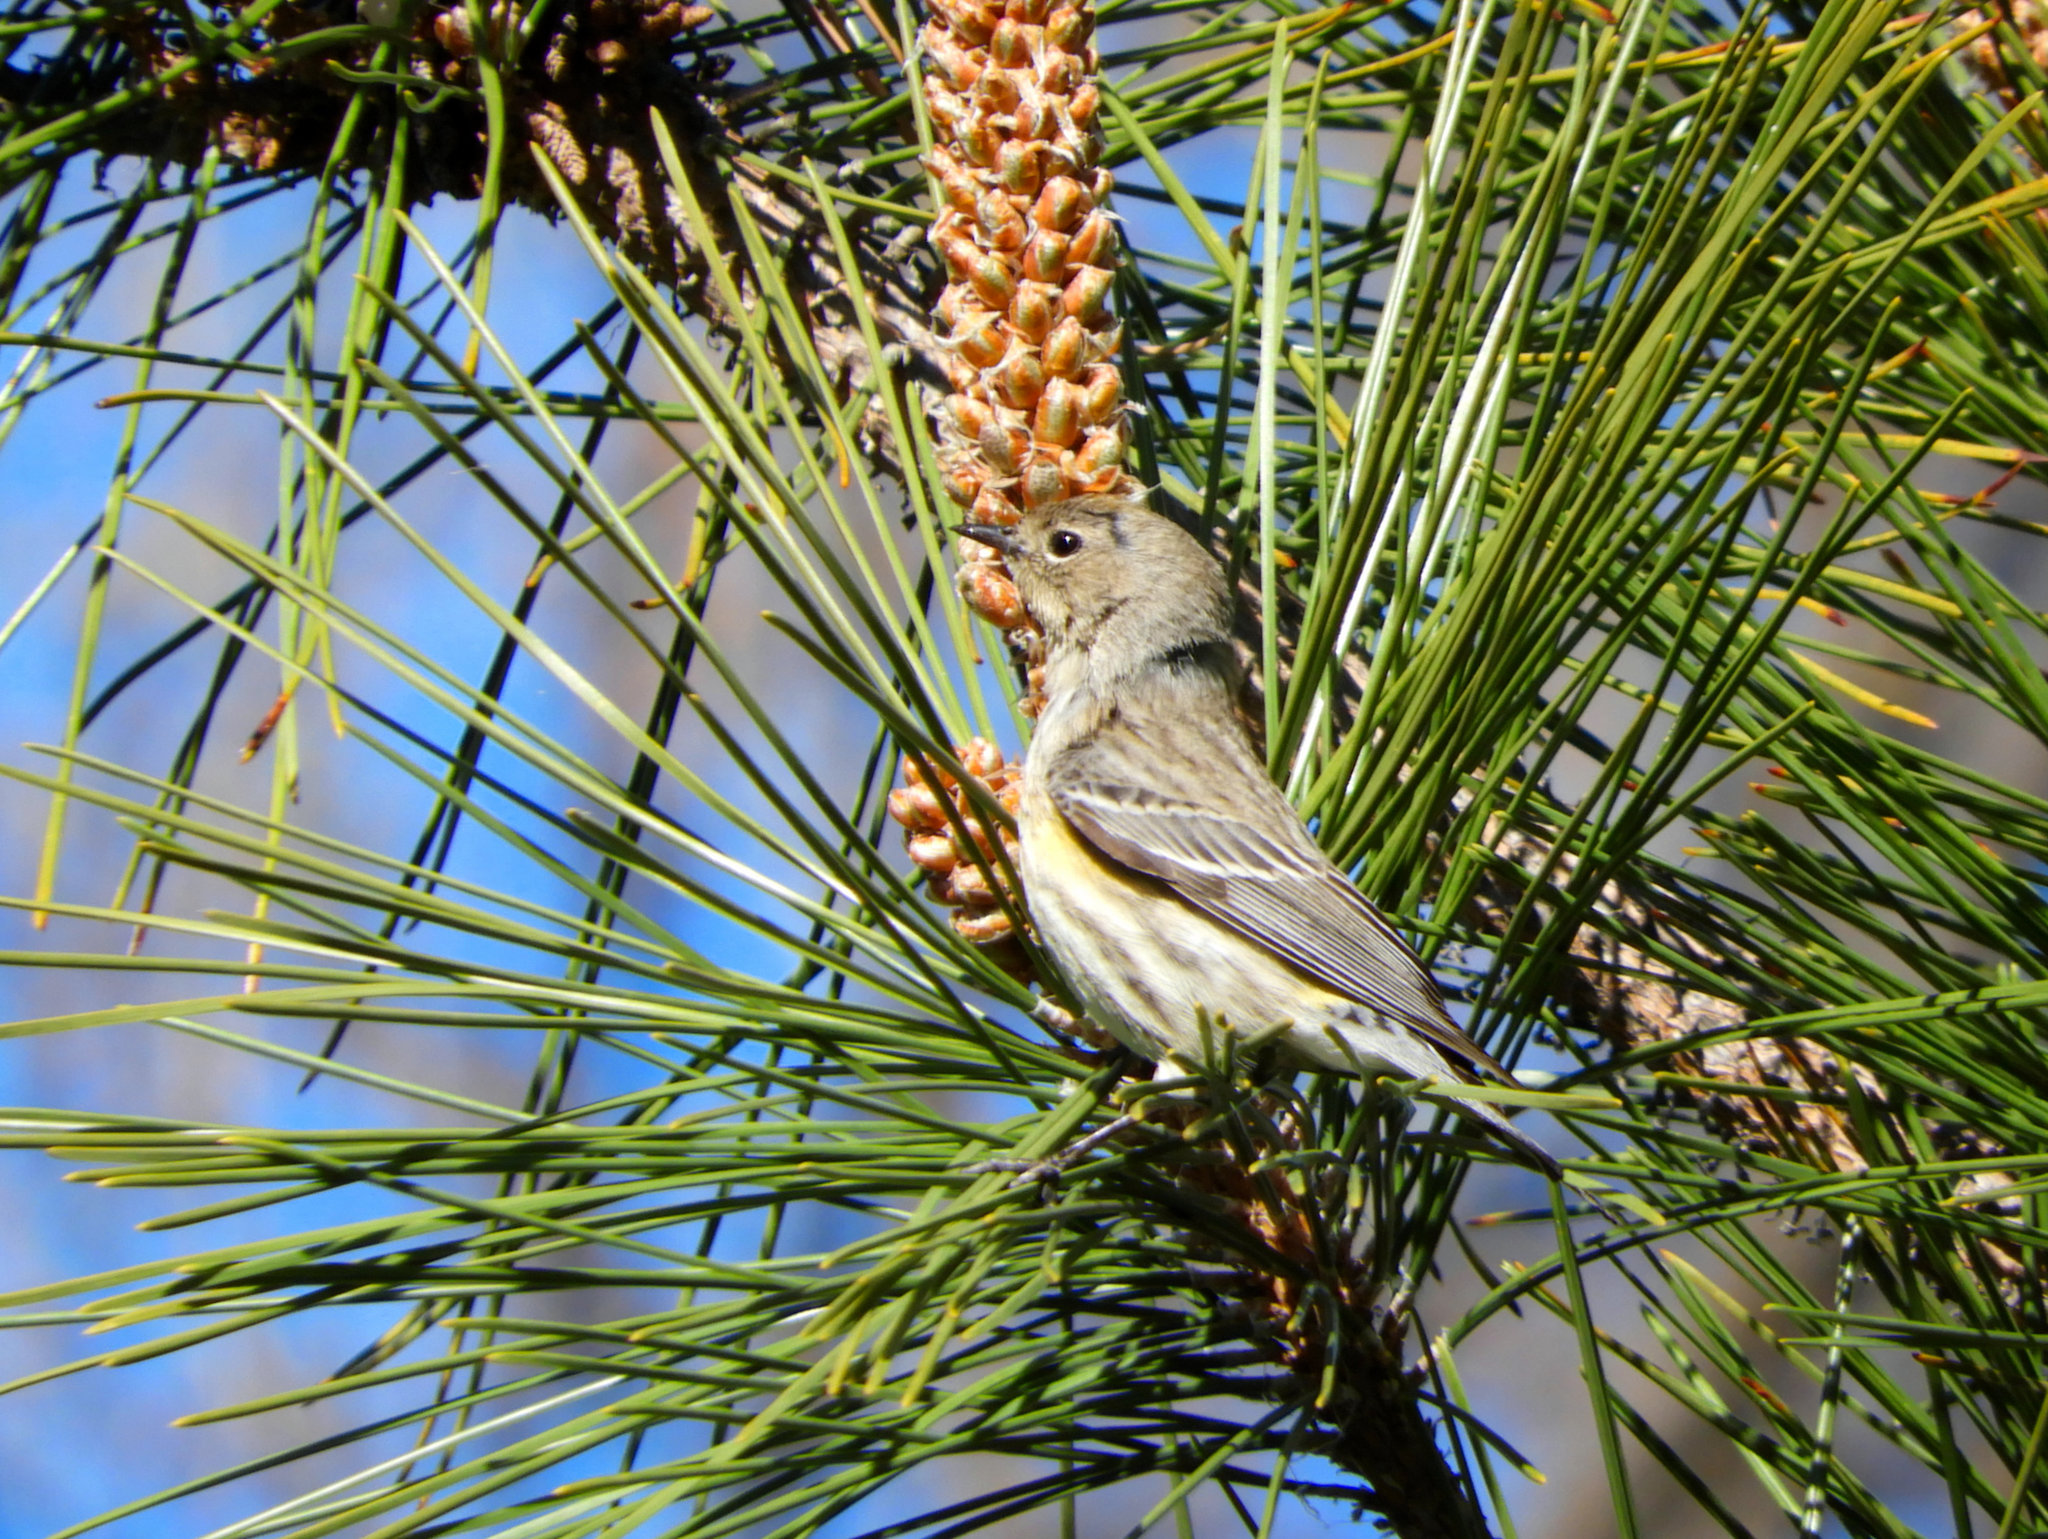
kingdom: Animalia
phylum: Chordata
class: Aves
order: Passeriformes
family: Parulidae
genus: Setophaga
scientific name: Setophaga coronata
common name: Myrtle warbler
